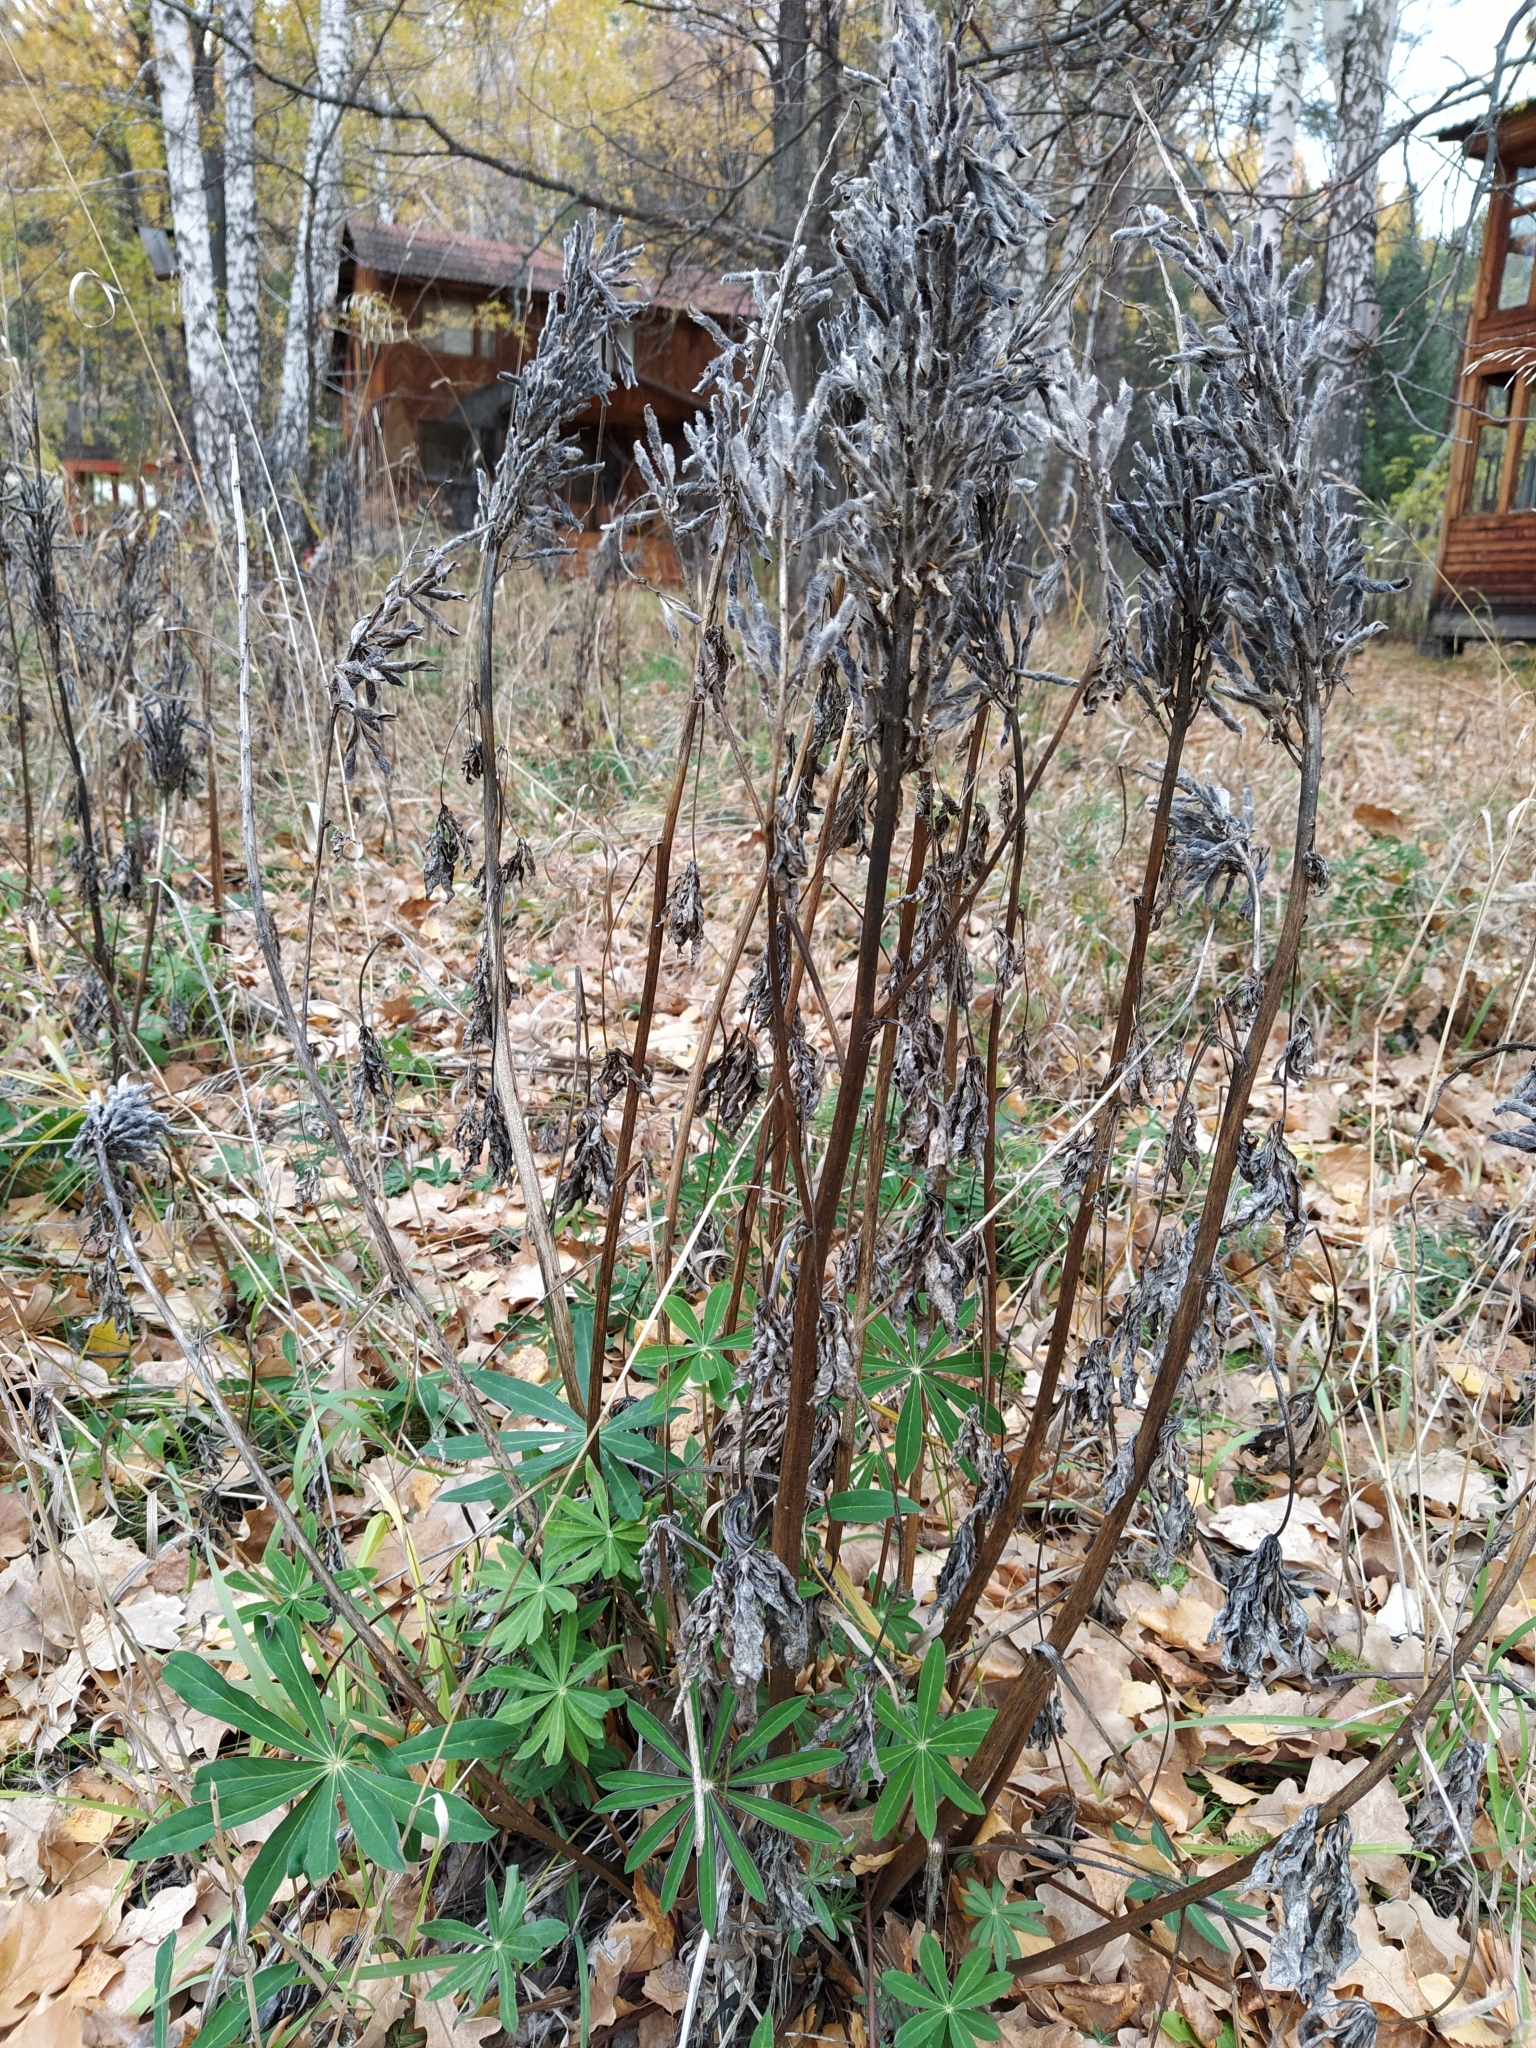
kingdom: Plantae
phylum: Tracheophyta
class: Magnoliopsida
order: Fabales
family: Fabaceae
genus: Lupinus
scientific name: Lupinus polyphyllus
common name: Garden lupin
